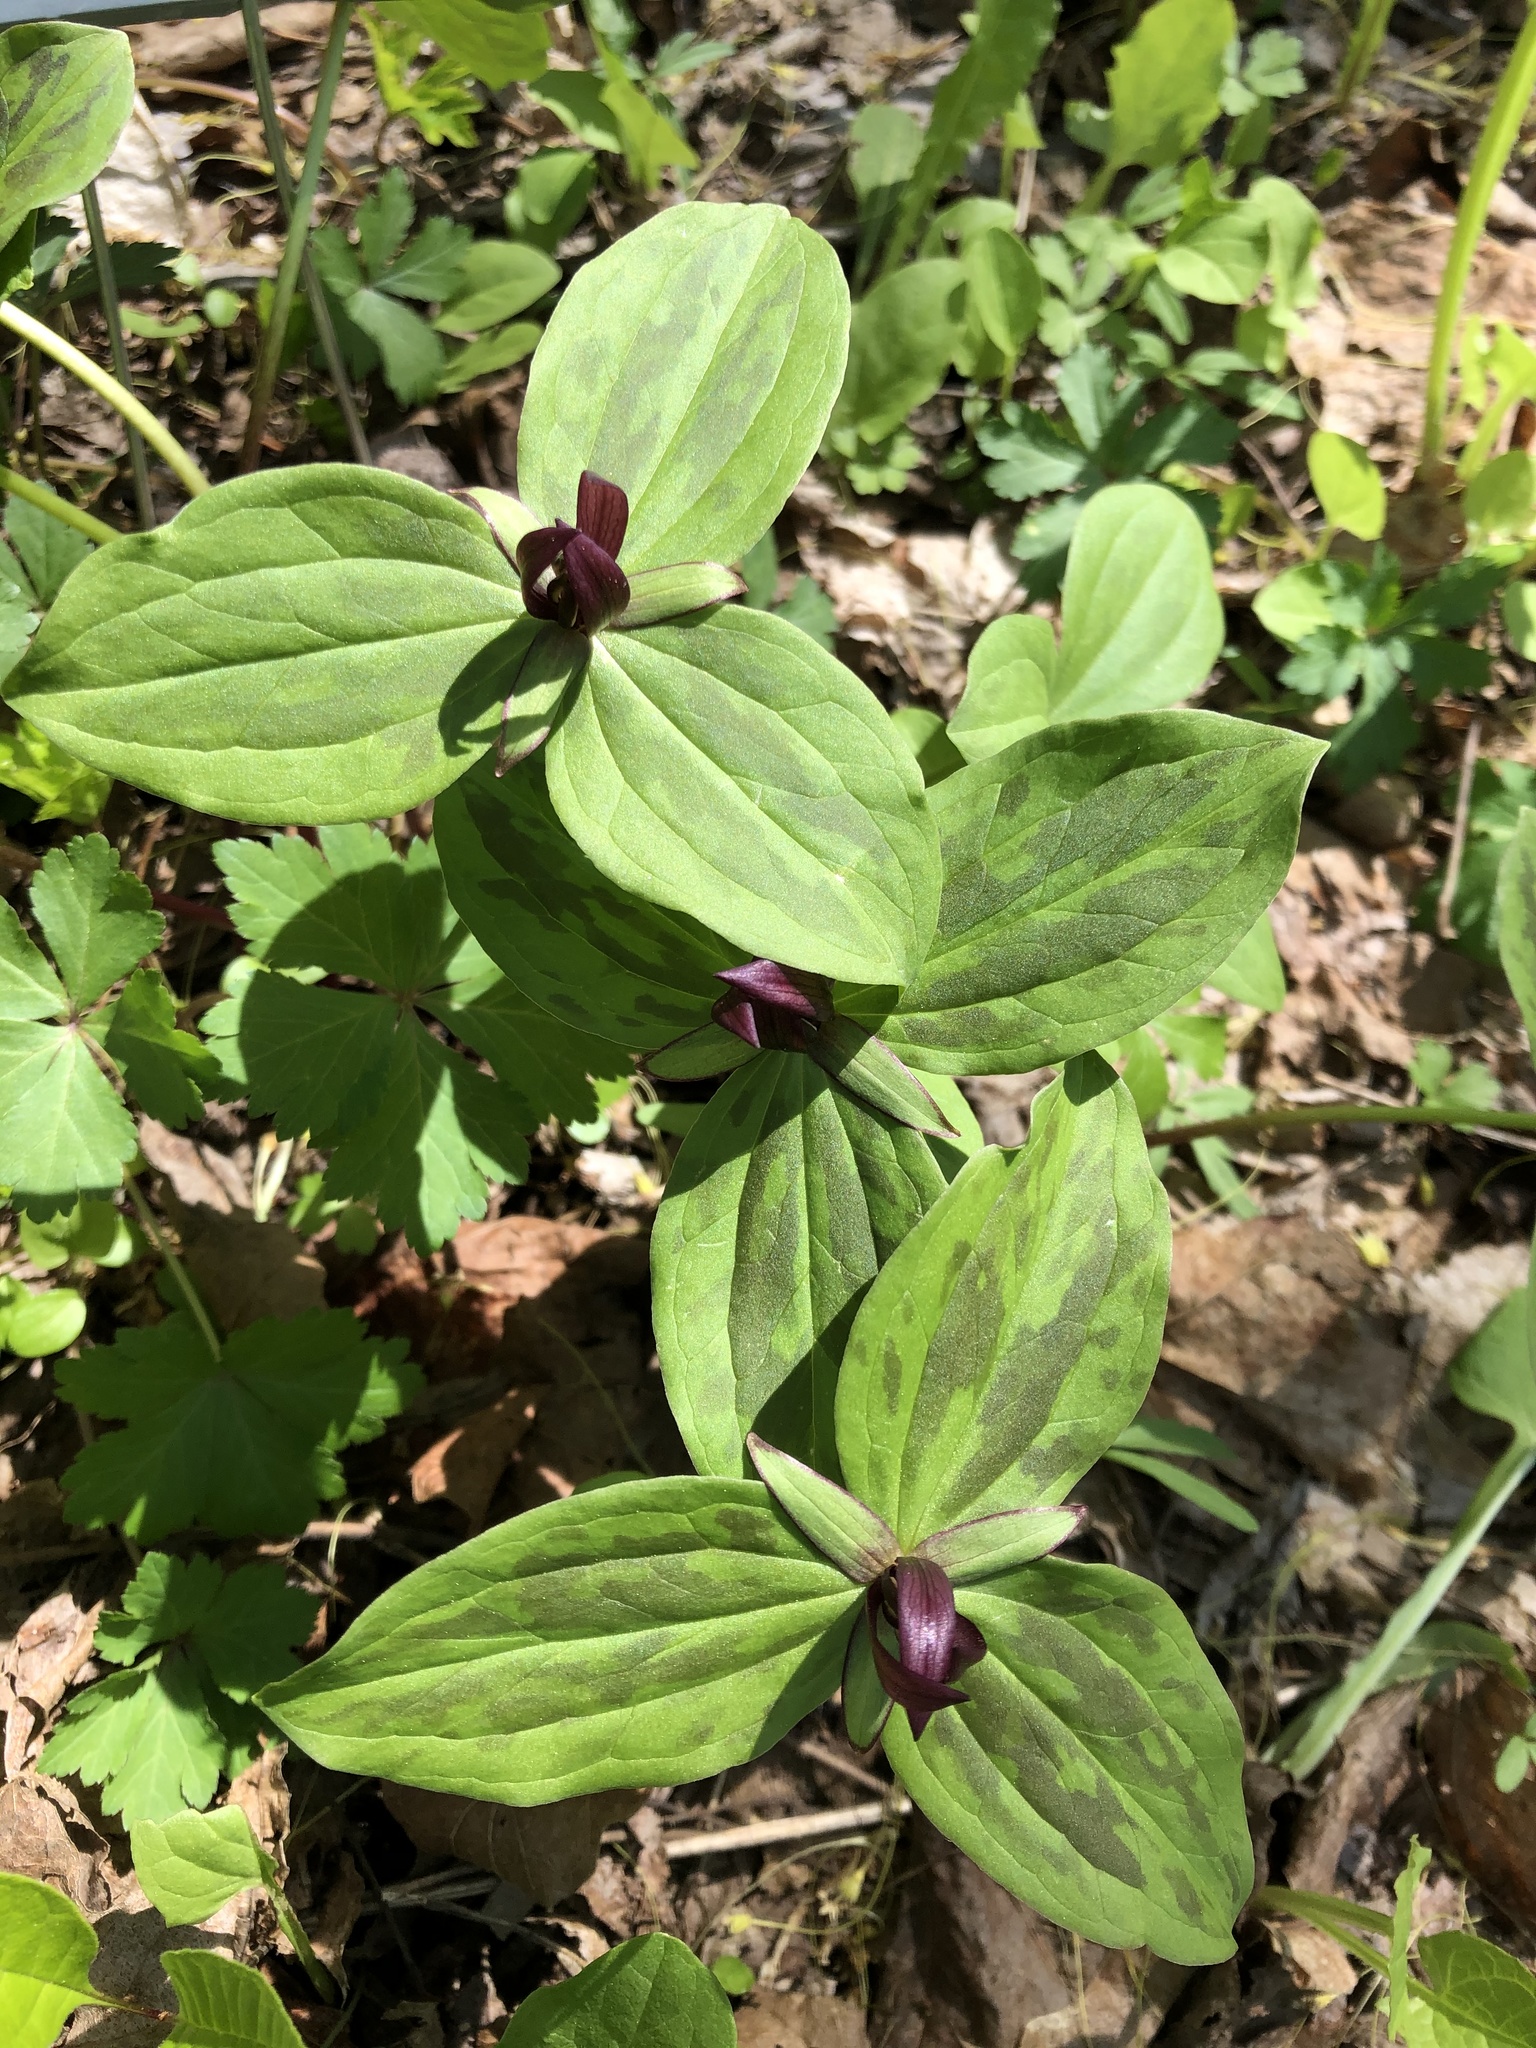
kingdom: Plantae
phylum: Tracheophyta
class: Liliopsida
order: Liliales
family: Melanthiaceae
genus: Trillium
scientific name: Trillium sessile
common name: Sessile trillium
